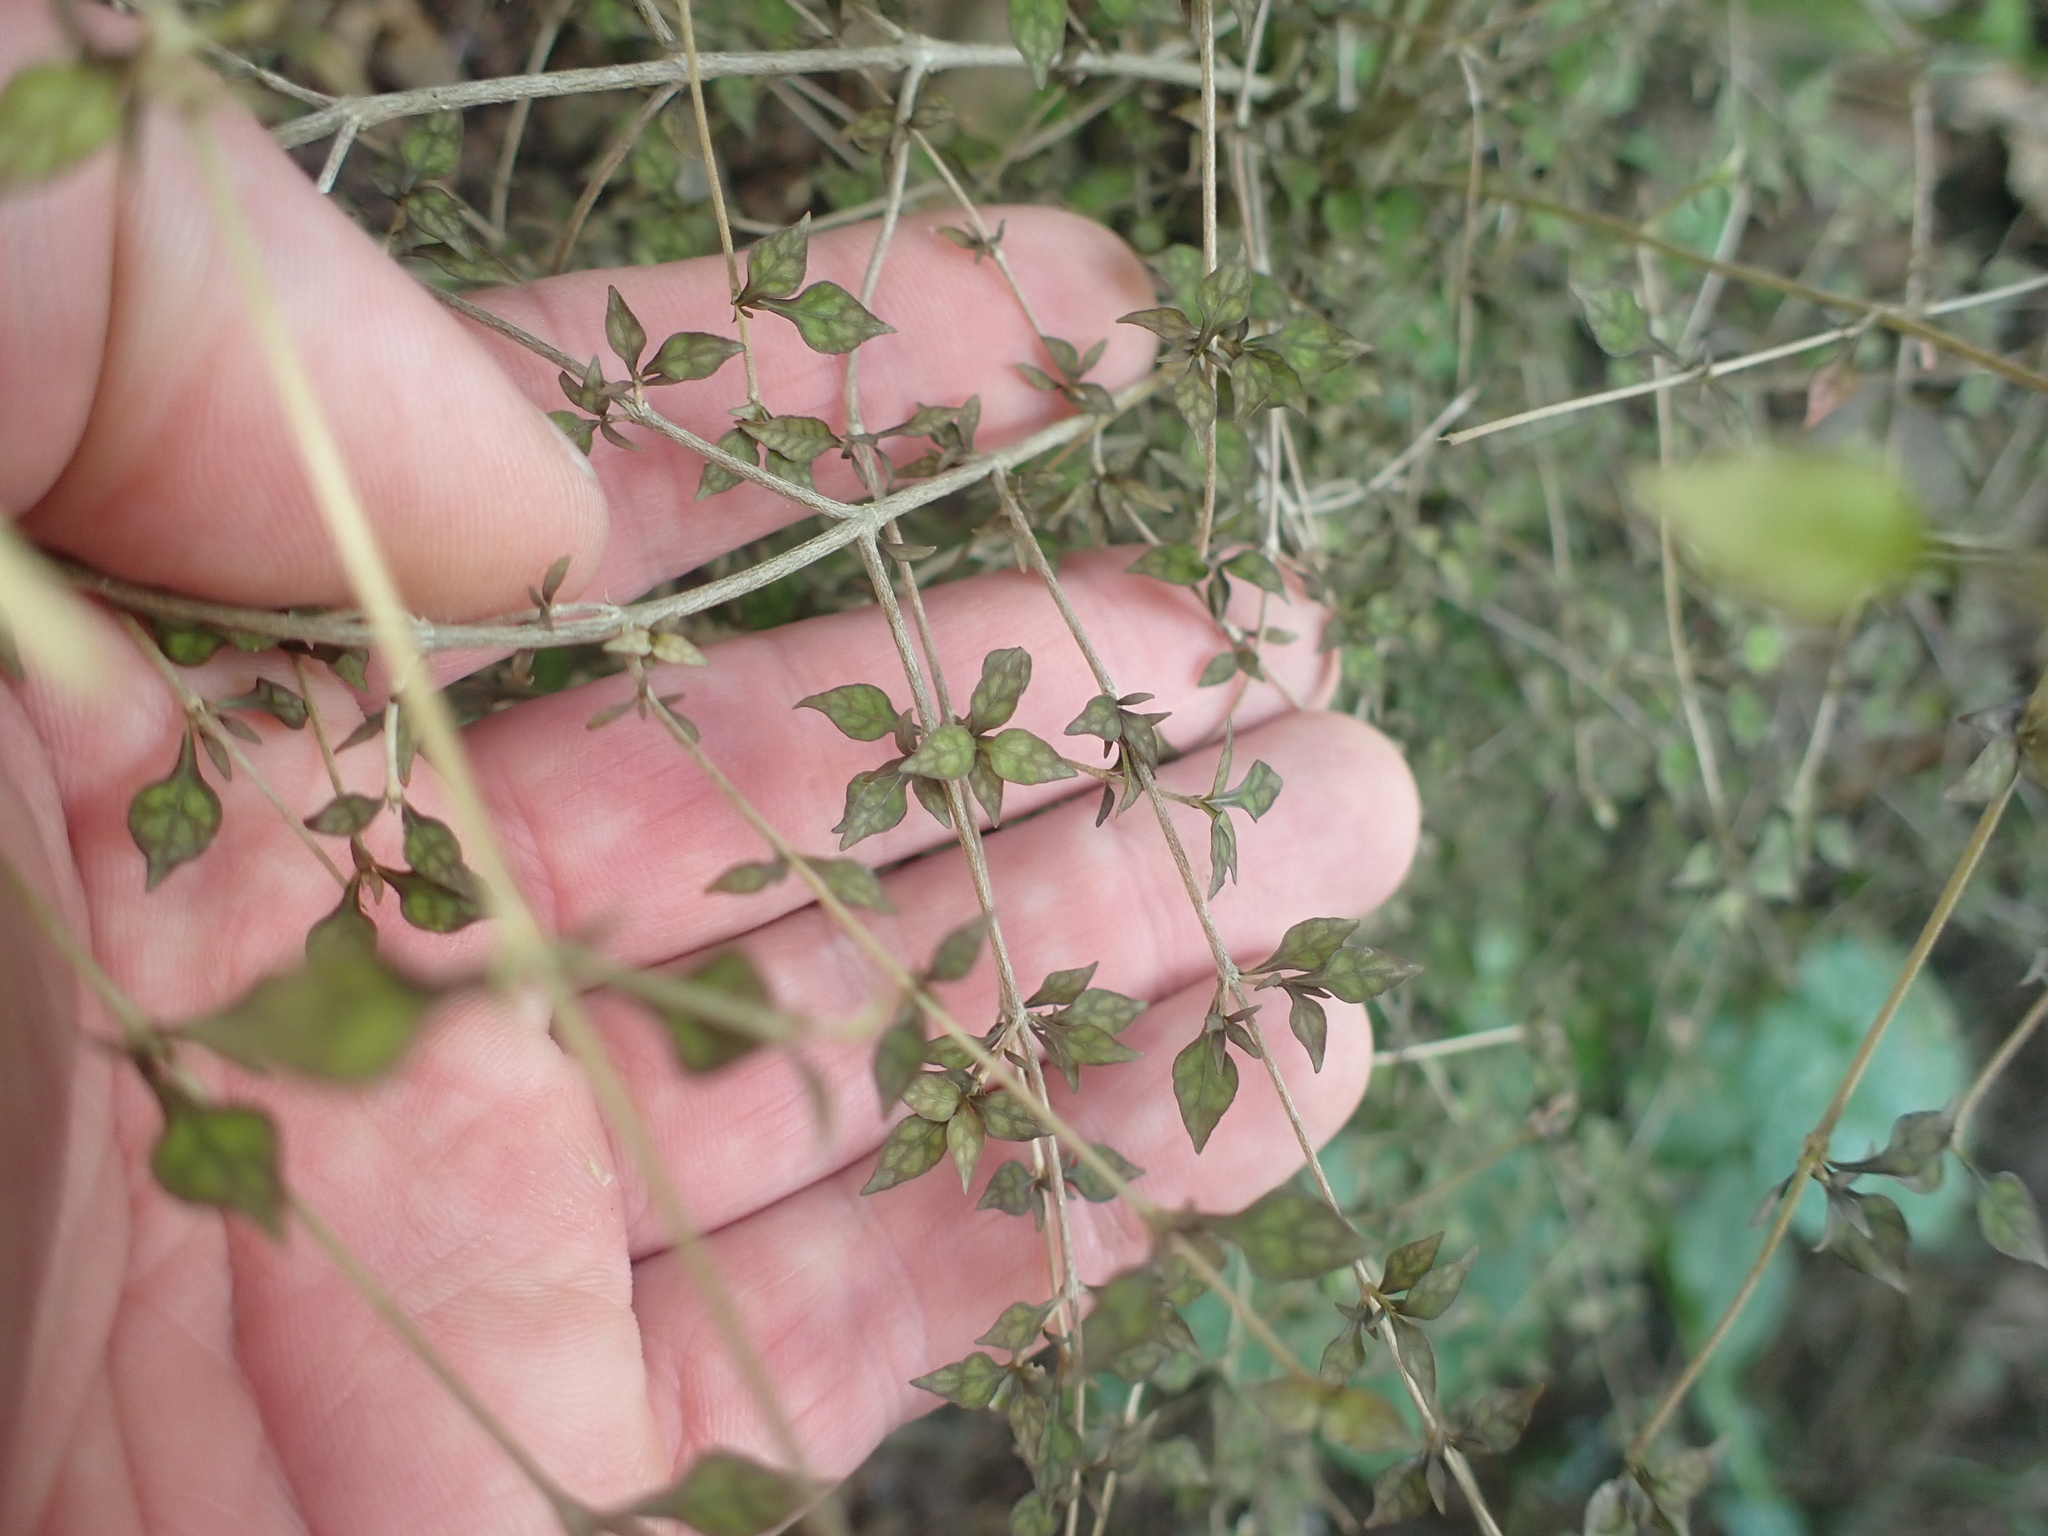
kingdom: Plantae
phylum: Tracheophyta
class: Magnoliopsida
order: Gentianales
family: Rubiaceae
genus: Coprosma
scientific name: Coprosma areolata
